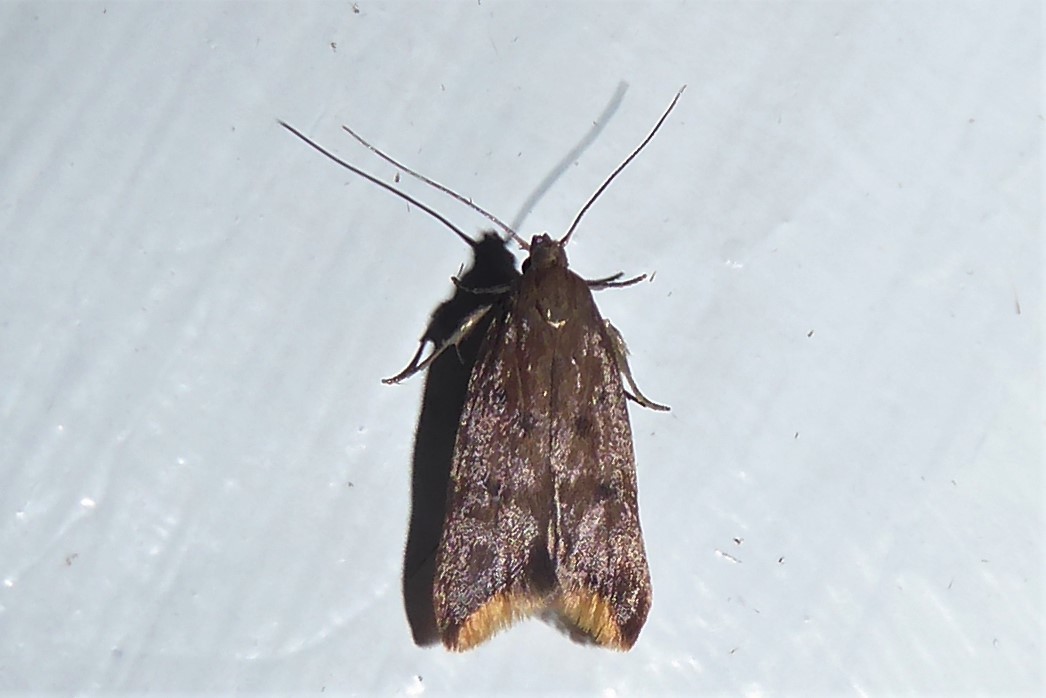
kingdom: Animalia
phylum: Arthropoda
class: Insecta
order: Lepidoptera
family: Oecophoridae
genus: Tachystola
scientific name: Tachystola acroxantha
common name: Ruddy streak
